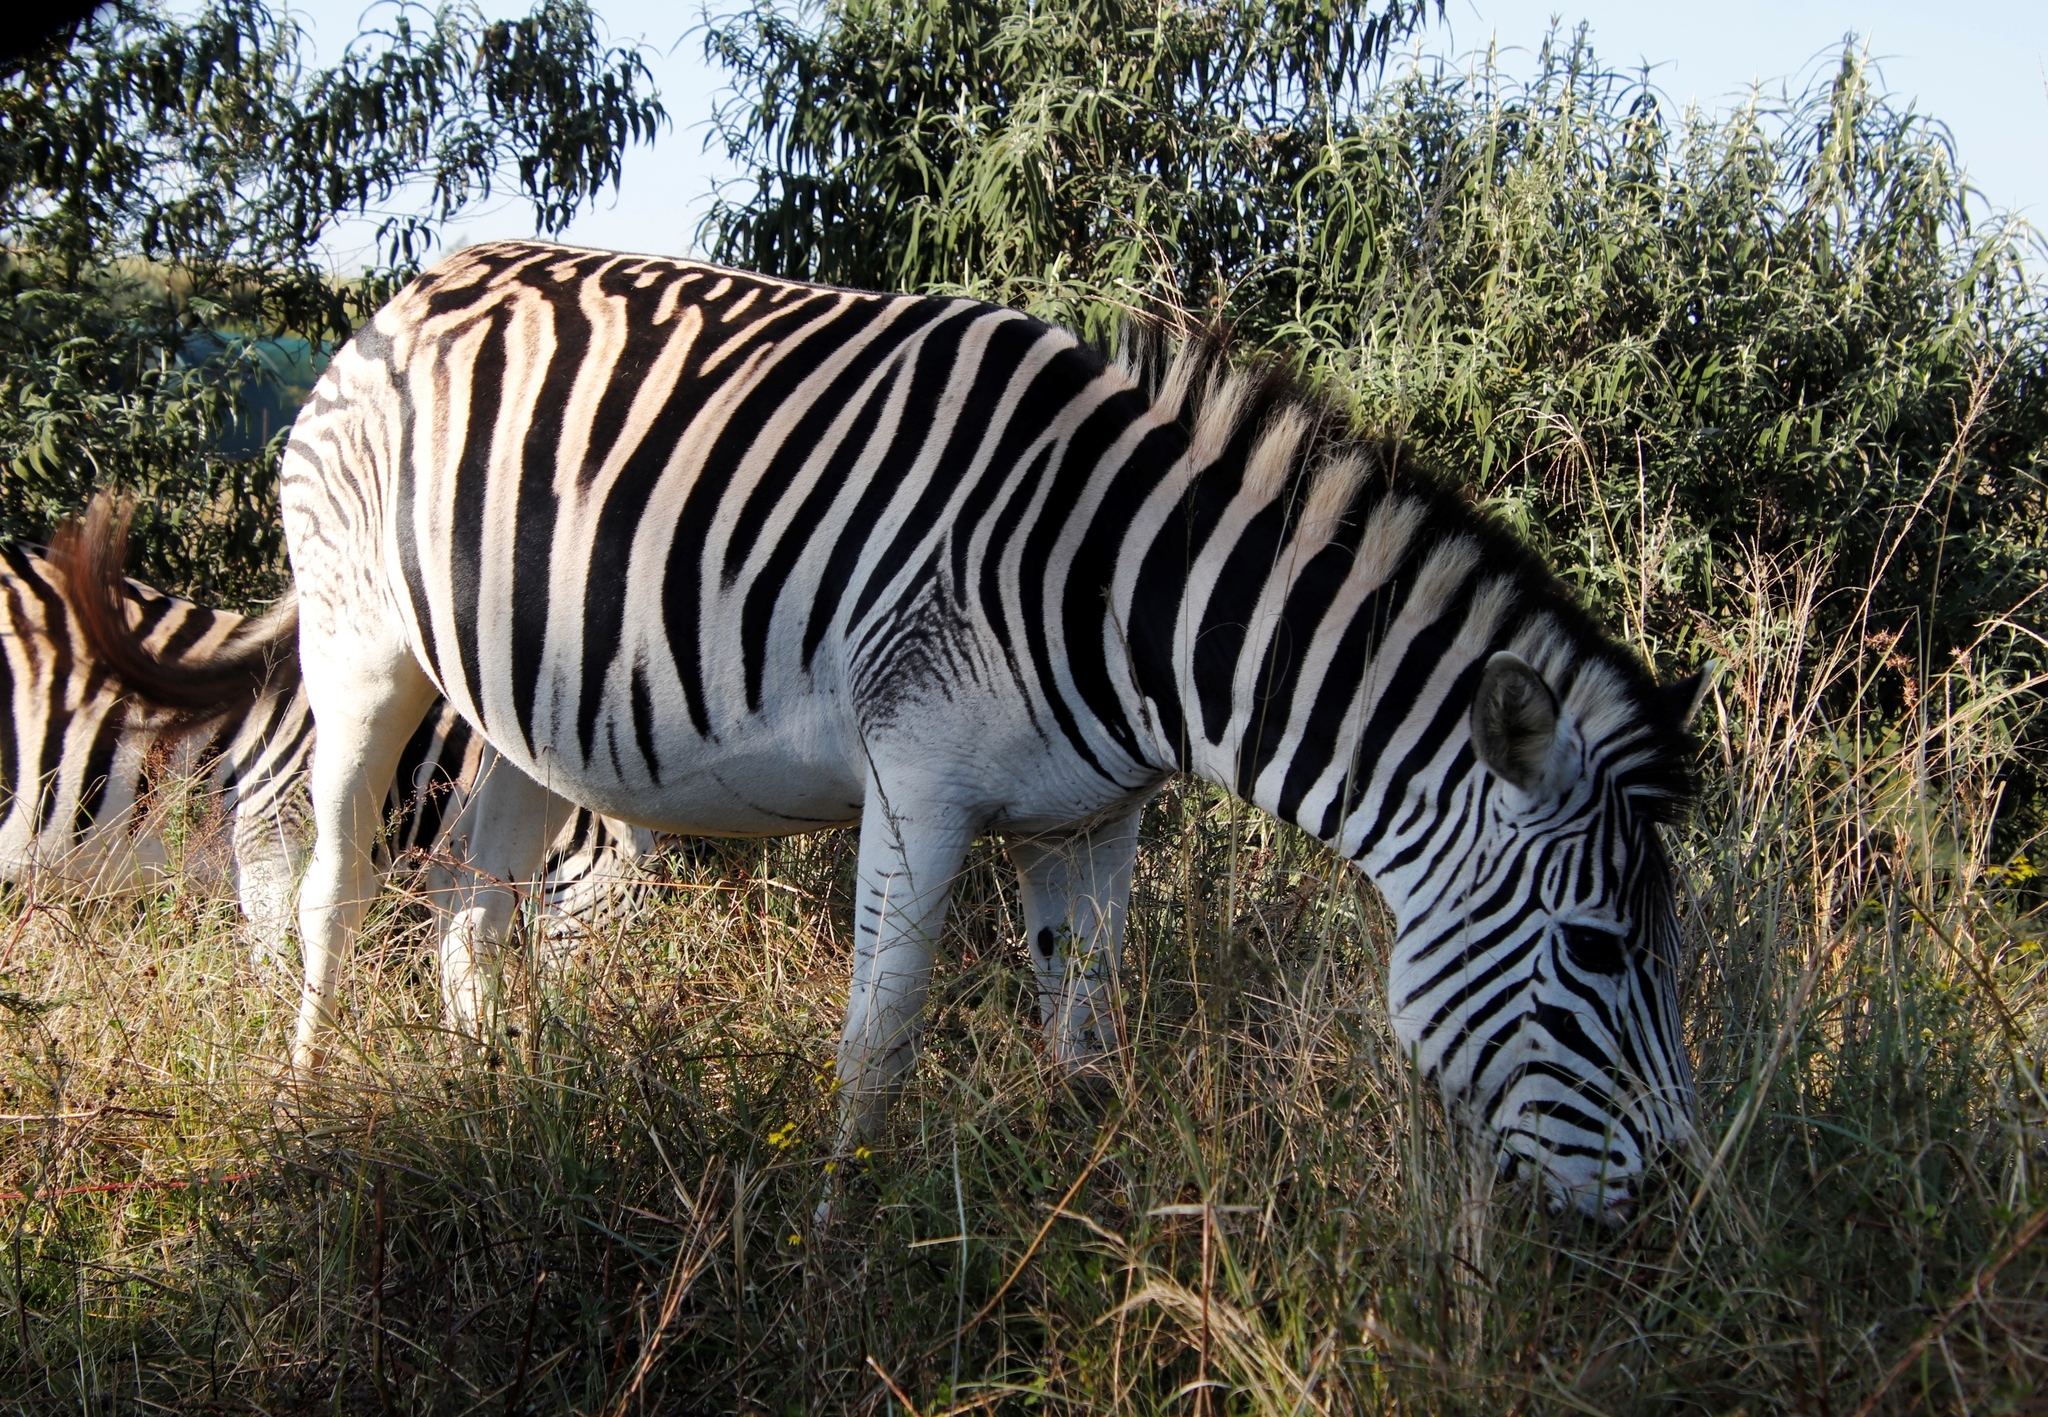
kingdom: Animalia
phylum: Chordata
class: Mammalia
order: Perissodactyla
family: Equidae
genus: Equus
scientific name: Equus quagga
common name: Plains zebra
